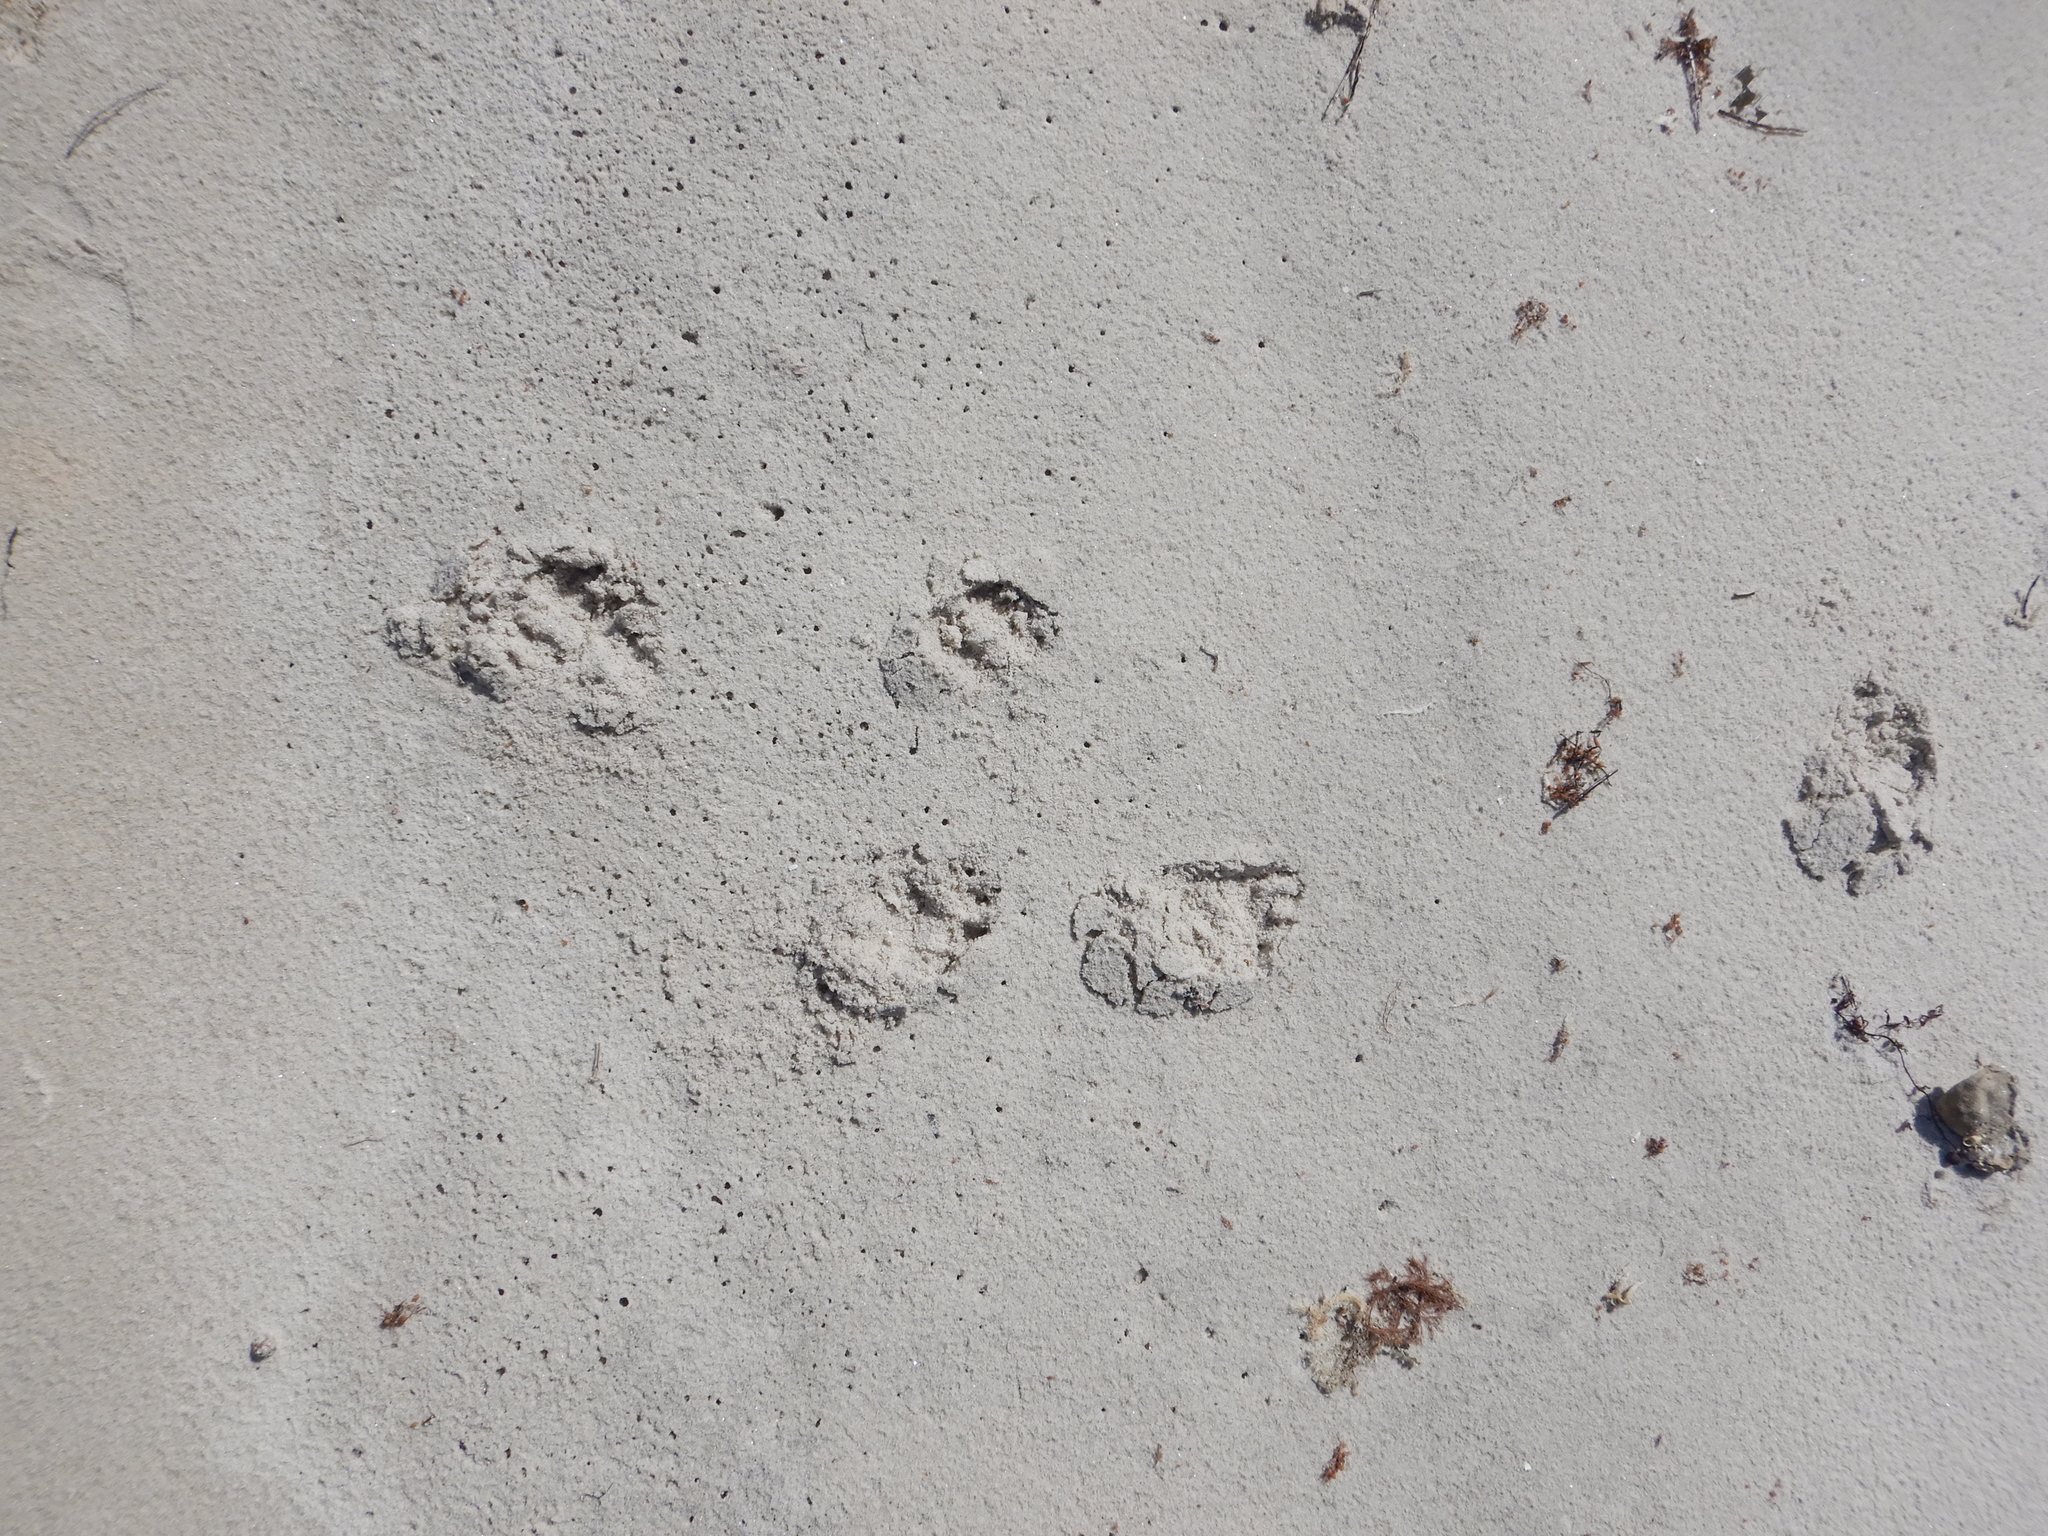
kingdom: Animalia
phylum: Chordata
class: Mammalia
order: Diprotodontia
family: Vombatidae
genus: Vombatus
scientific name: Vombatus ursinus
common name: Common wombat
